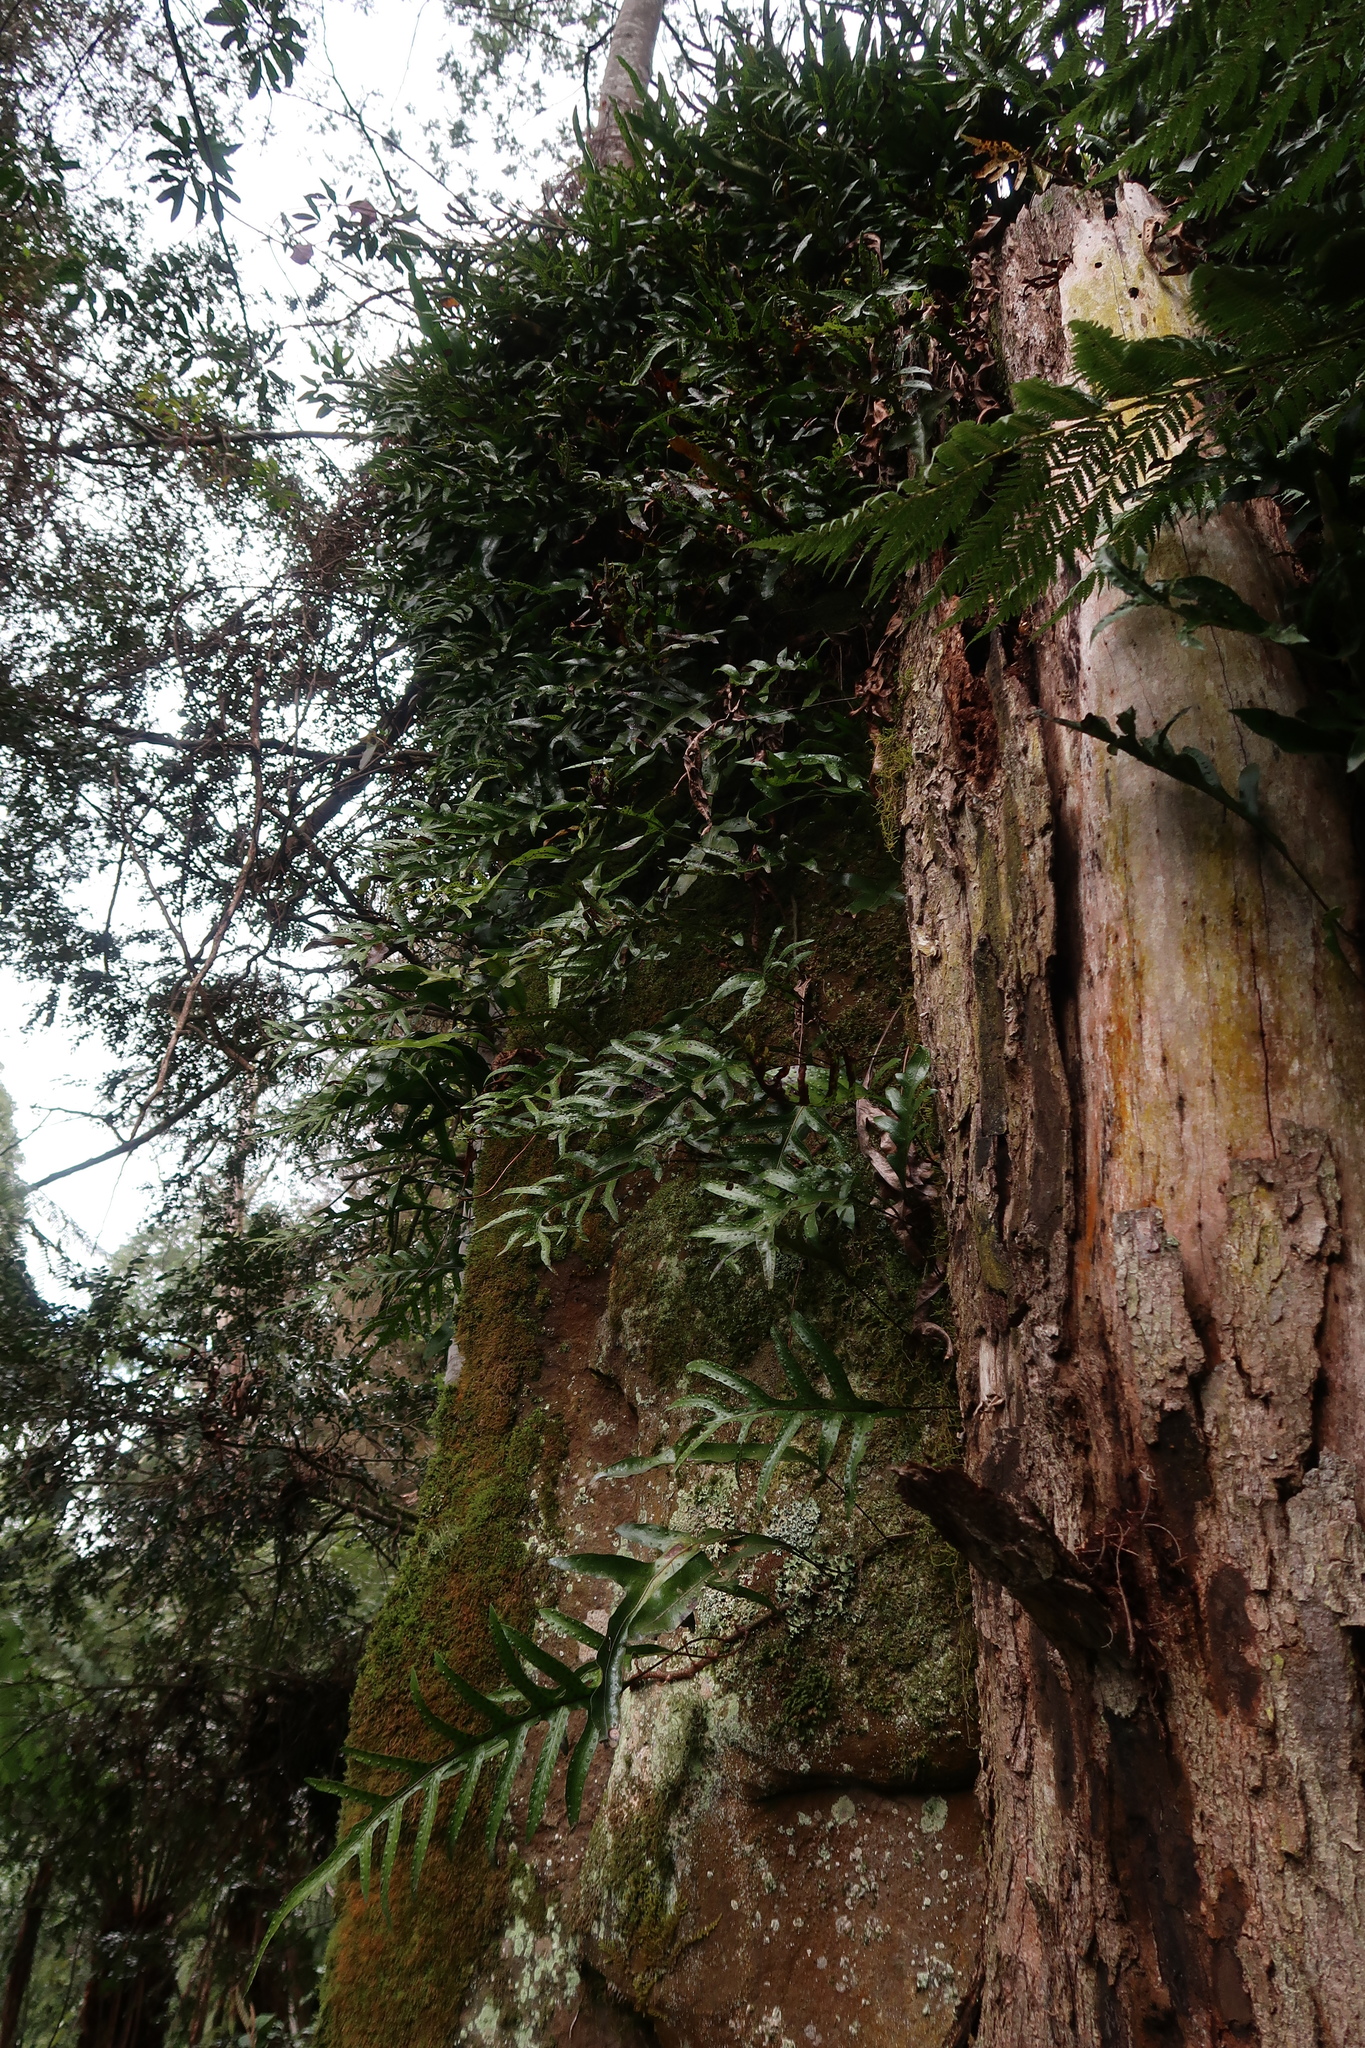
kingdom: Plantae
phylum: Tracheophyta
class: Polypodiopsida
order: Polypodiales
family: Polypodiaceae
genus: Lecanopteris
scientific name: Lecanopteris pustulata
